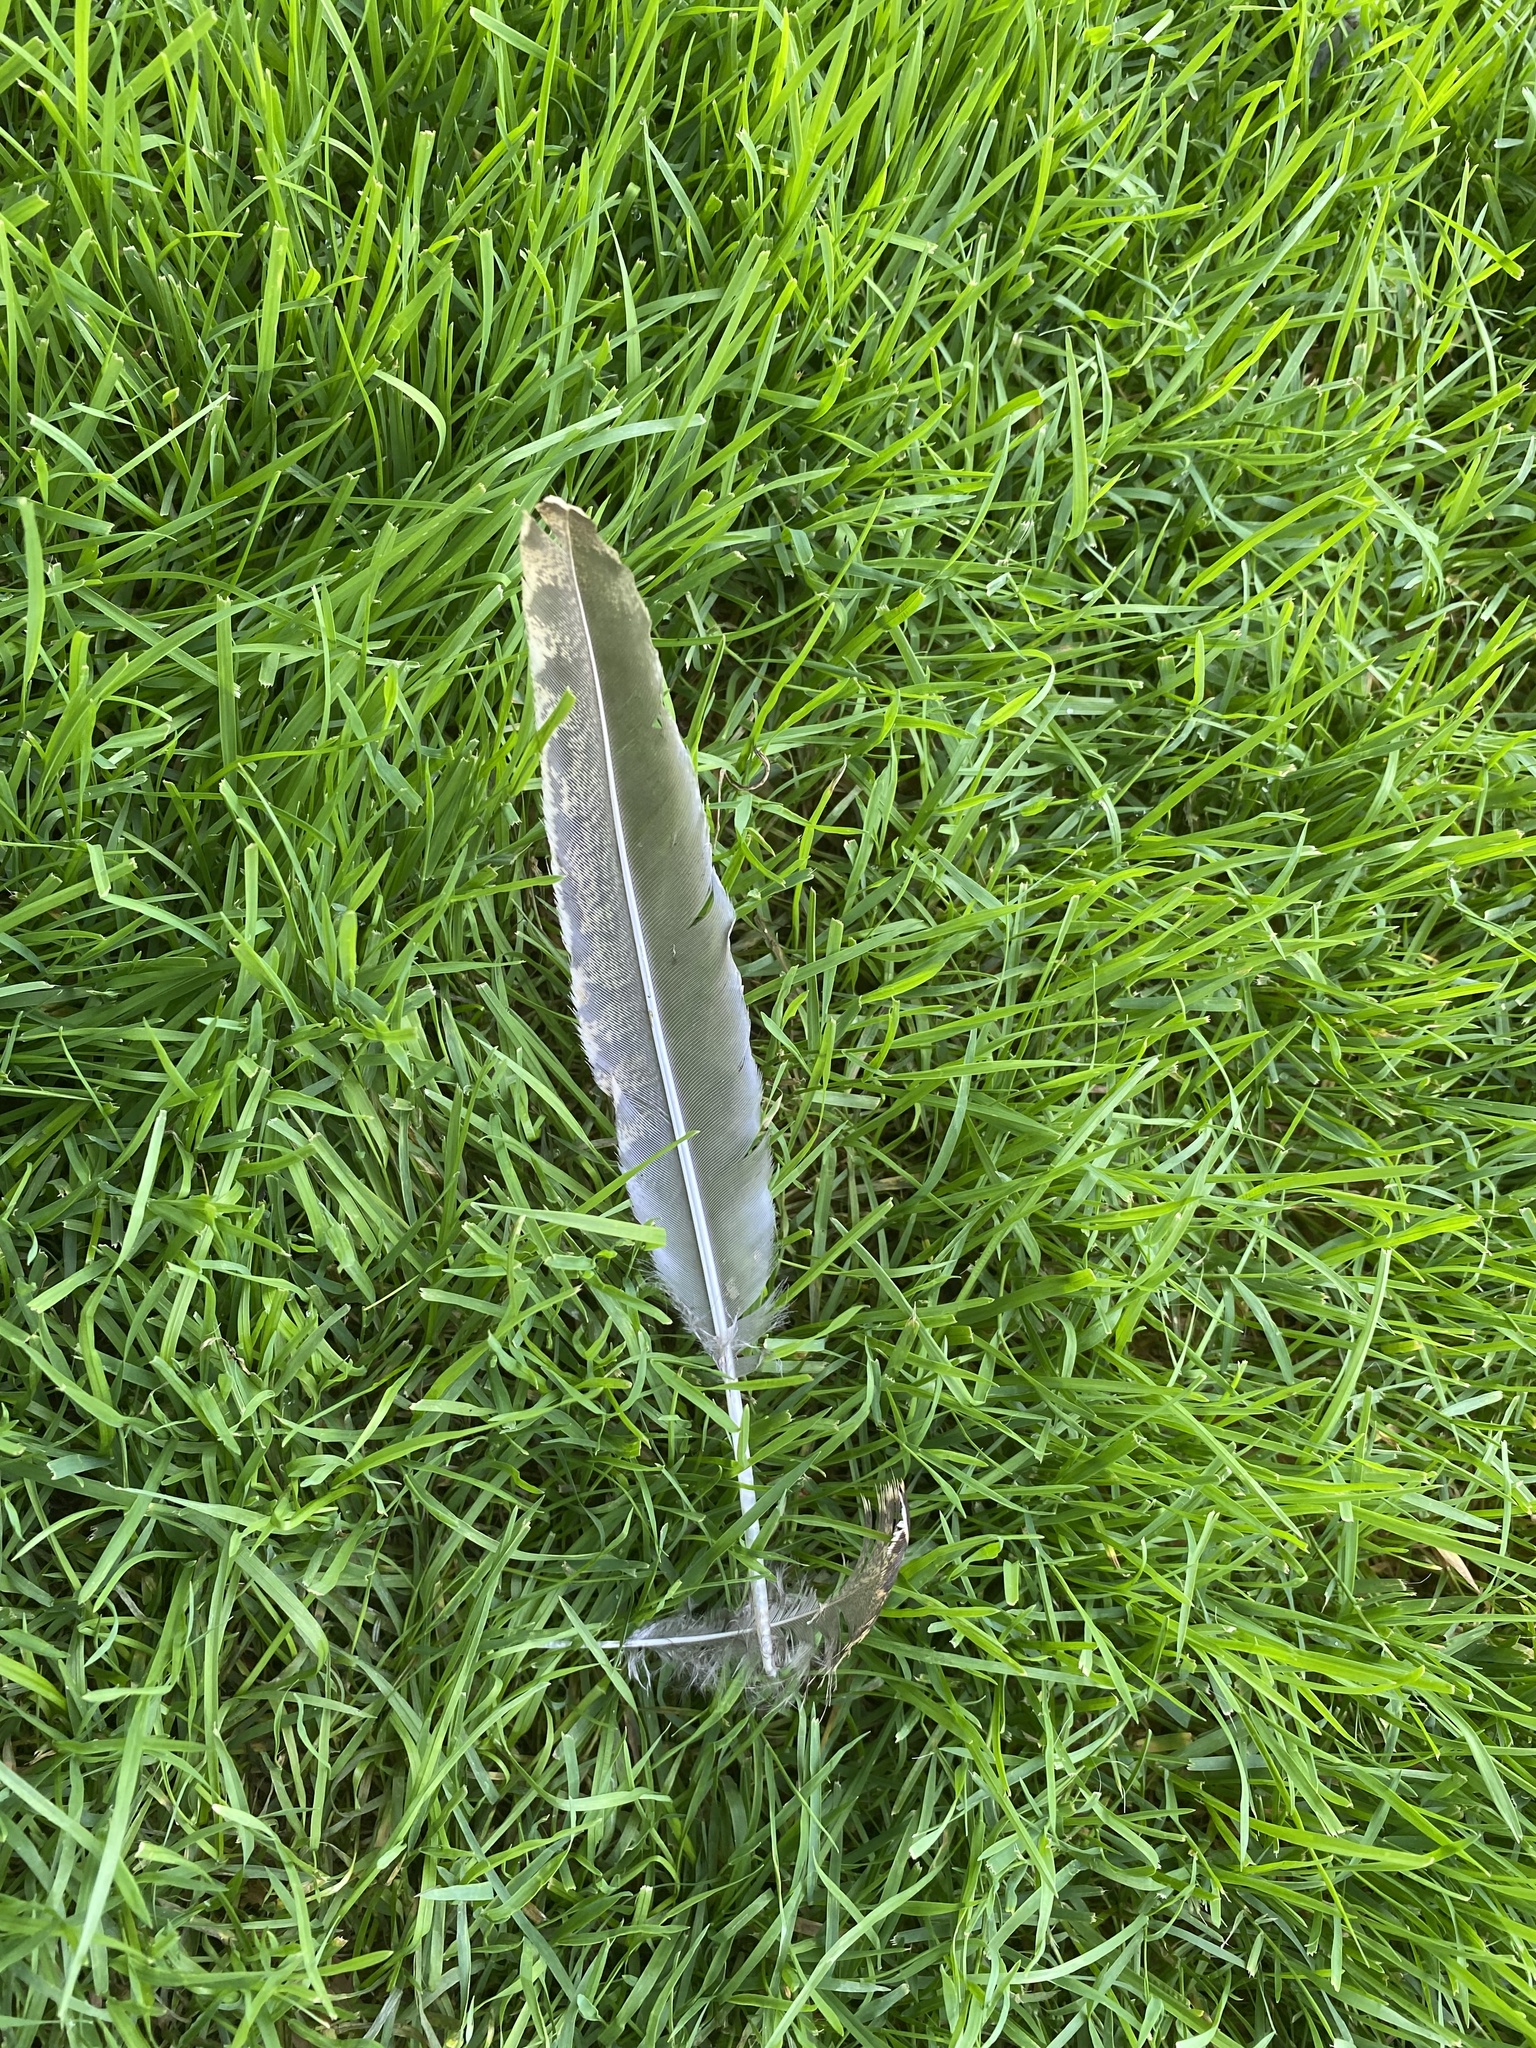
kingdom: Animalia
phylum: Chordata
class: Aves
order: Galliformes
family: Phasianidae
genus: Meleagris
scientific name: Meleagris gallopavo
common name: Wild turkey
